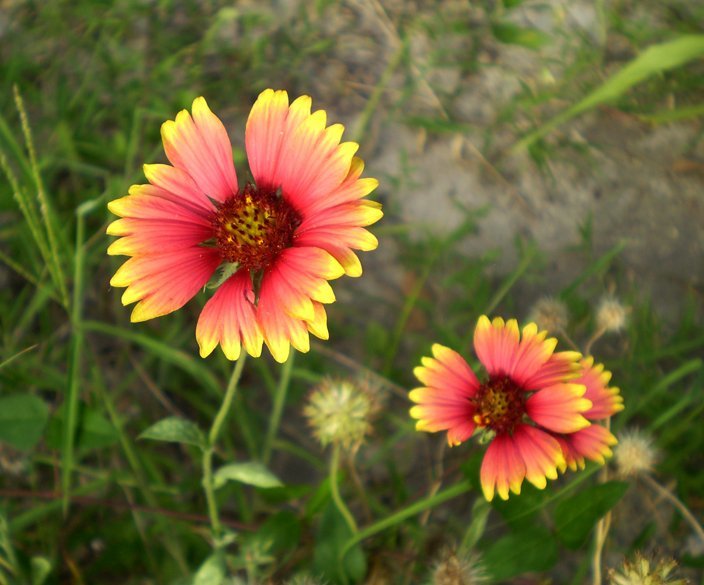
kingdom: Plantae
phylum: Tracheophyta
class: Magnoliopsida
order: Asterales
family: Asteraceae
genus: Gaillardia
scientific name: Gaillardia pulchella
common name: Firewheel
